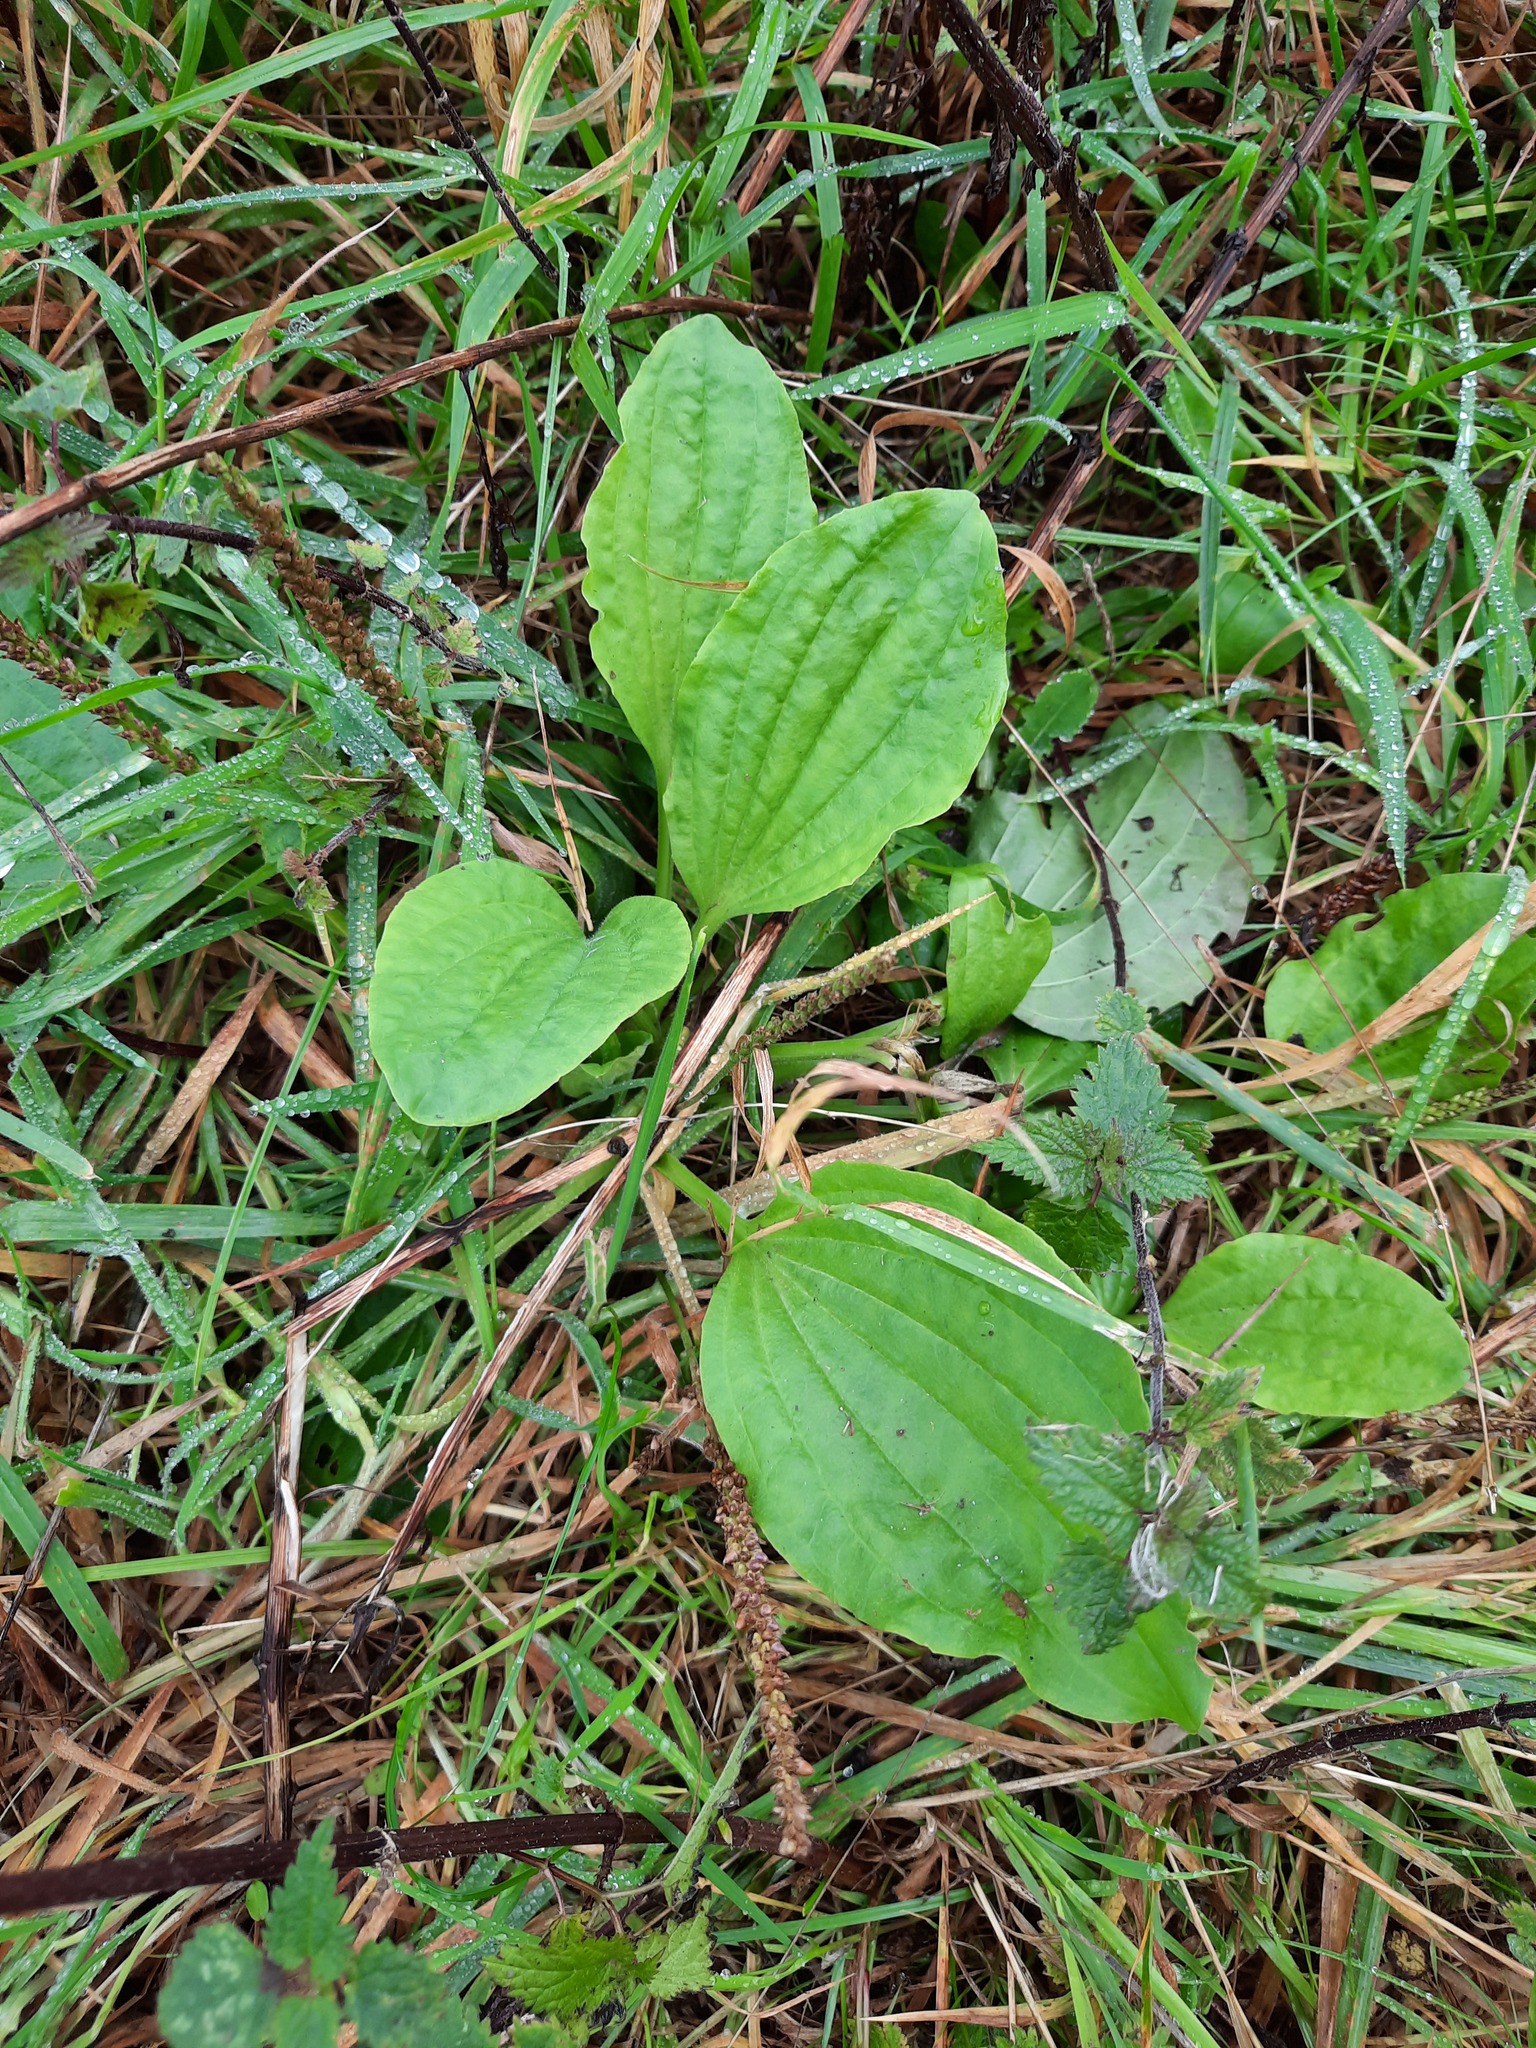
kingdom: Plantae
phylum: Tracheophyta
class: Magnoliopsida
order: Lamiales
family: Plantaginaceae
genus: Plantago
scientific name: Plantago major
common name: Common plantain
